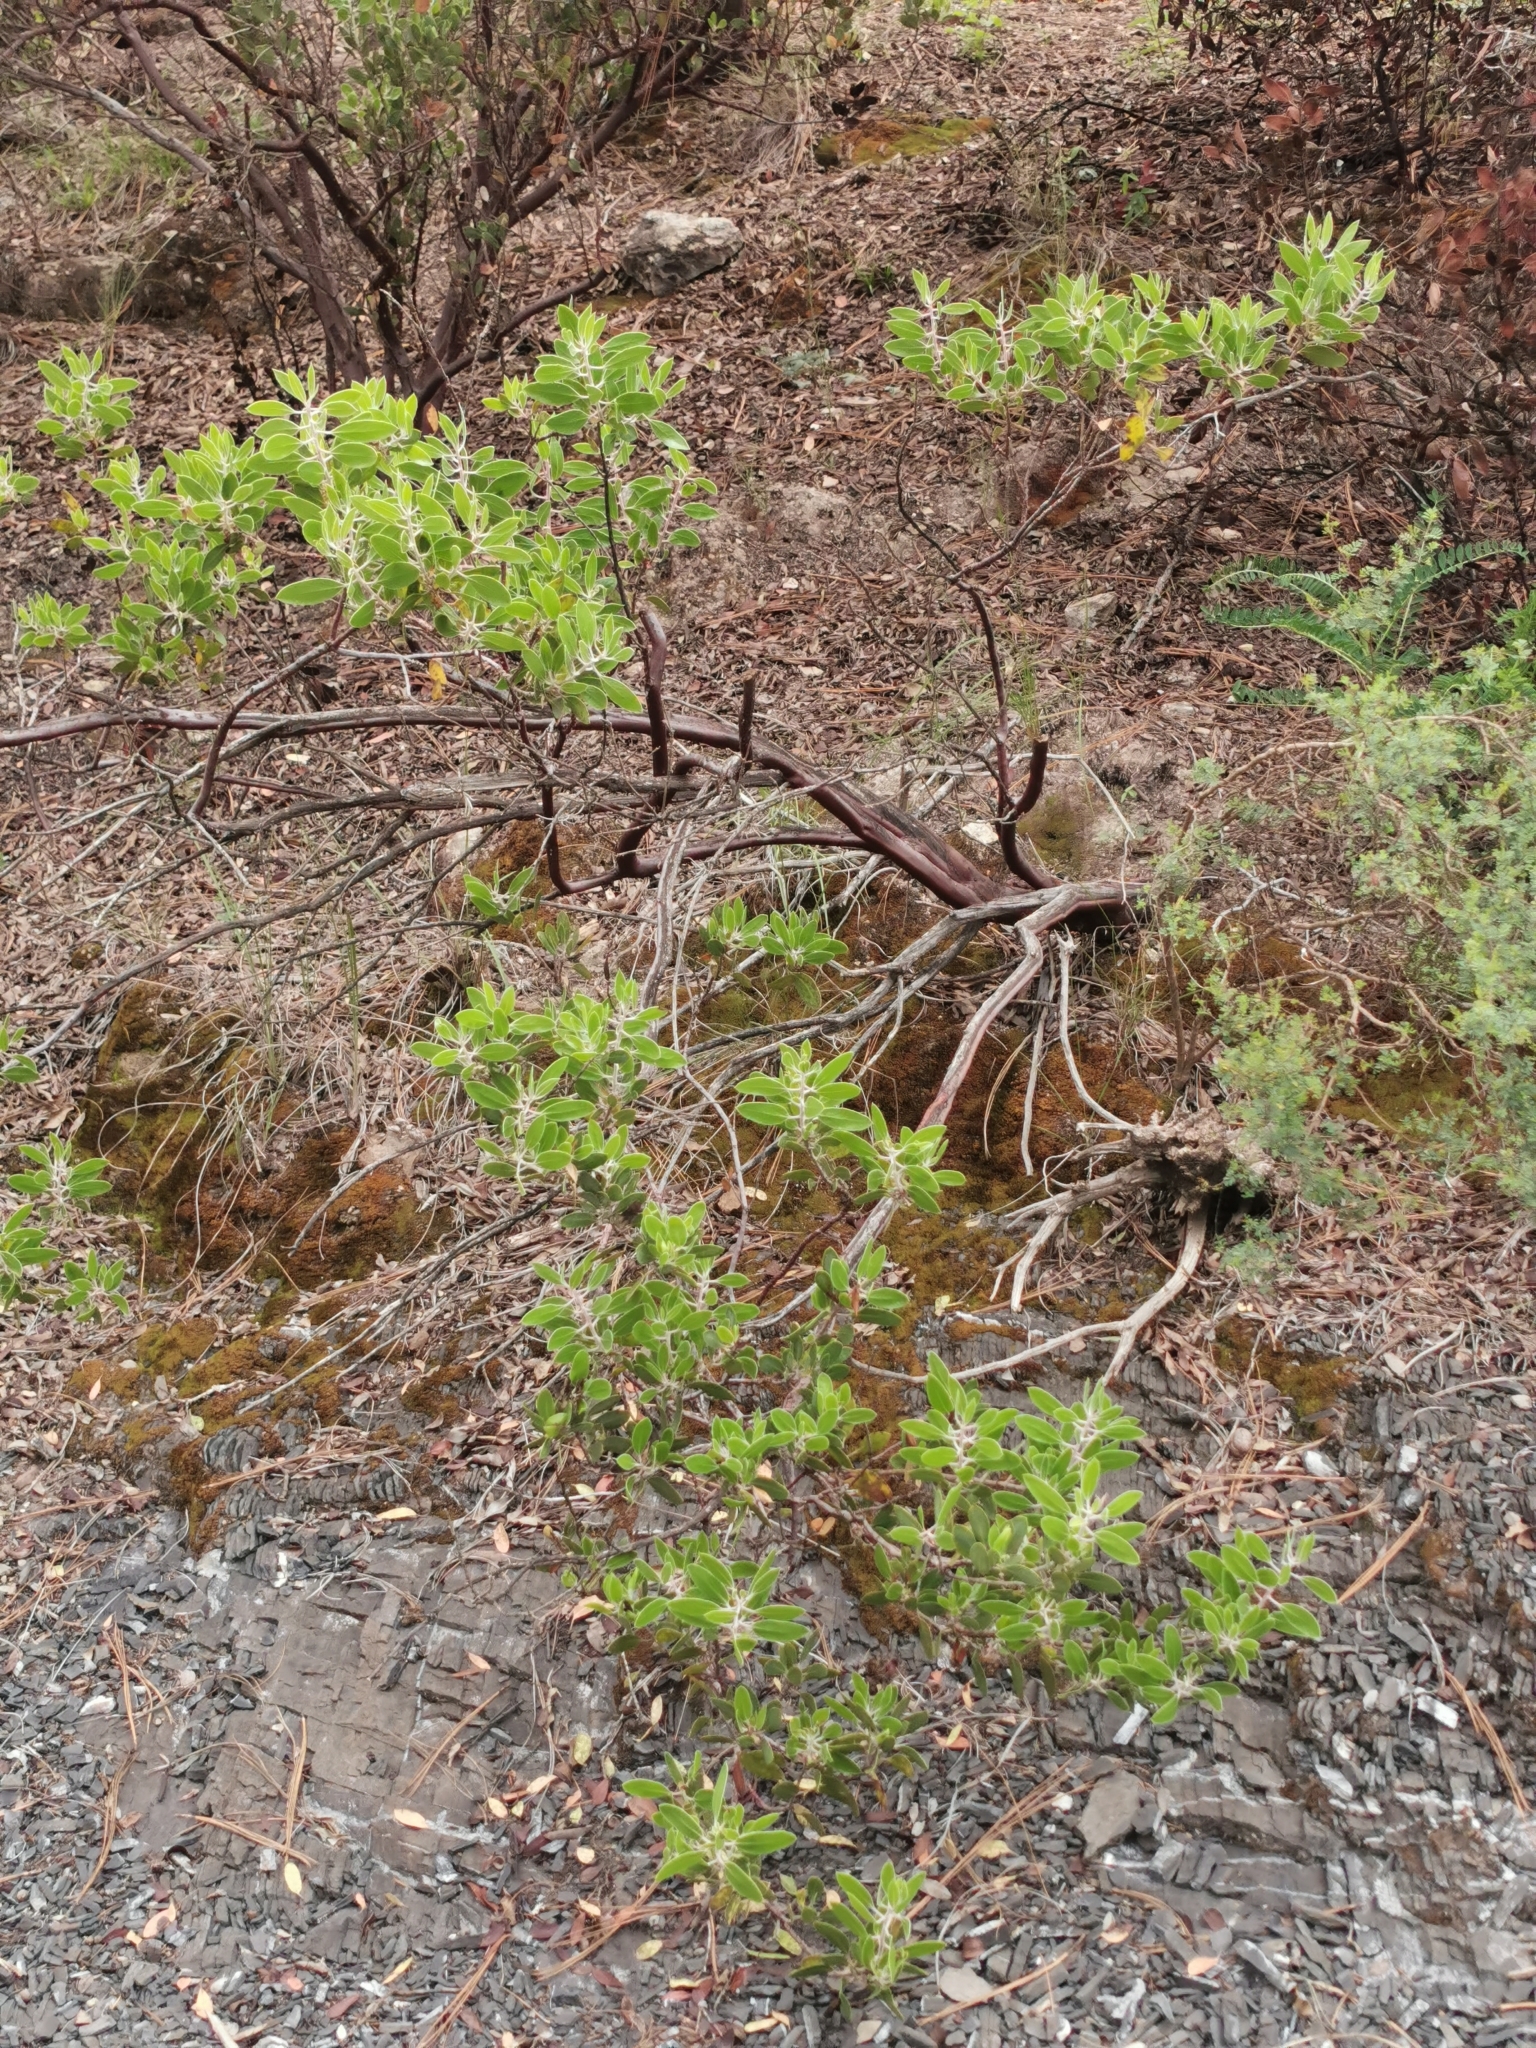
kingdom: Plantae
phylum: Tracheophyta
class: Magnoliopsida
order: Ericales
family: Ericaceae
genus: Arctostaphylos
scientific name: Arctostaphylos pungens
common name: Mexican manzanita
